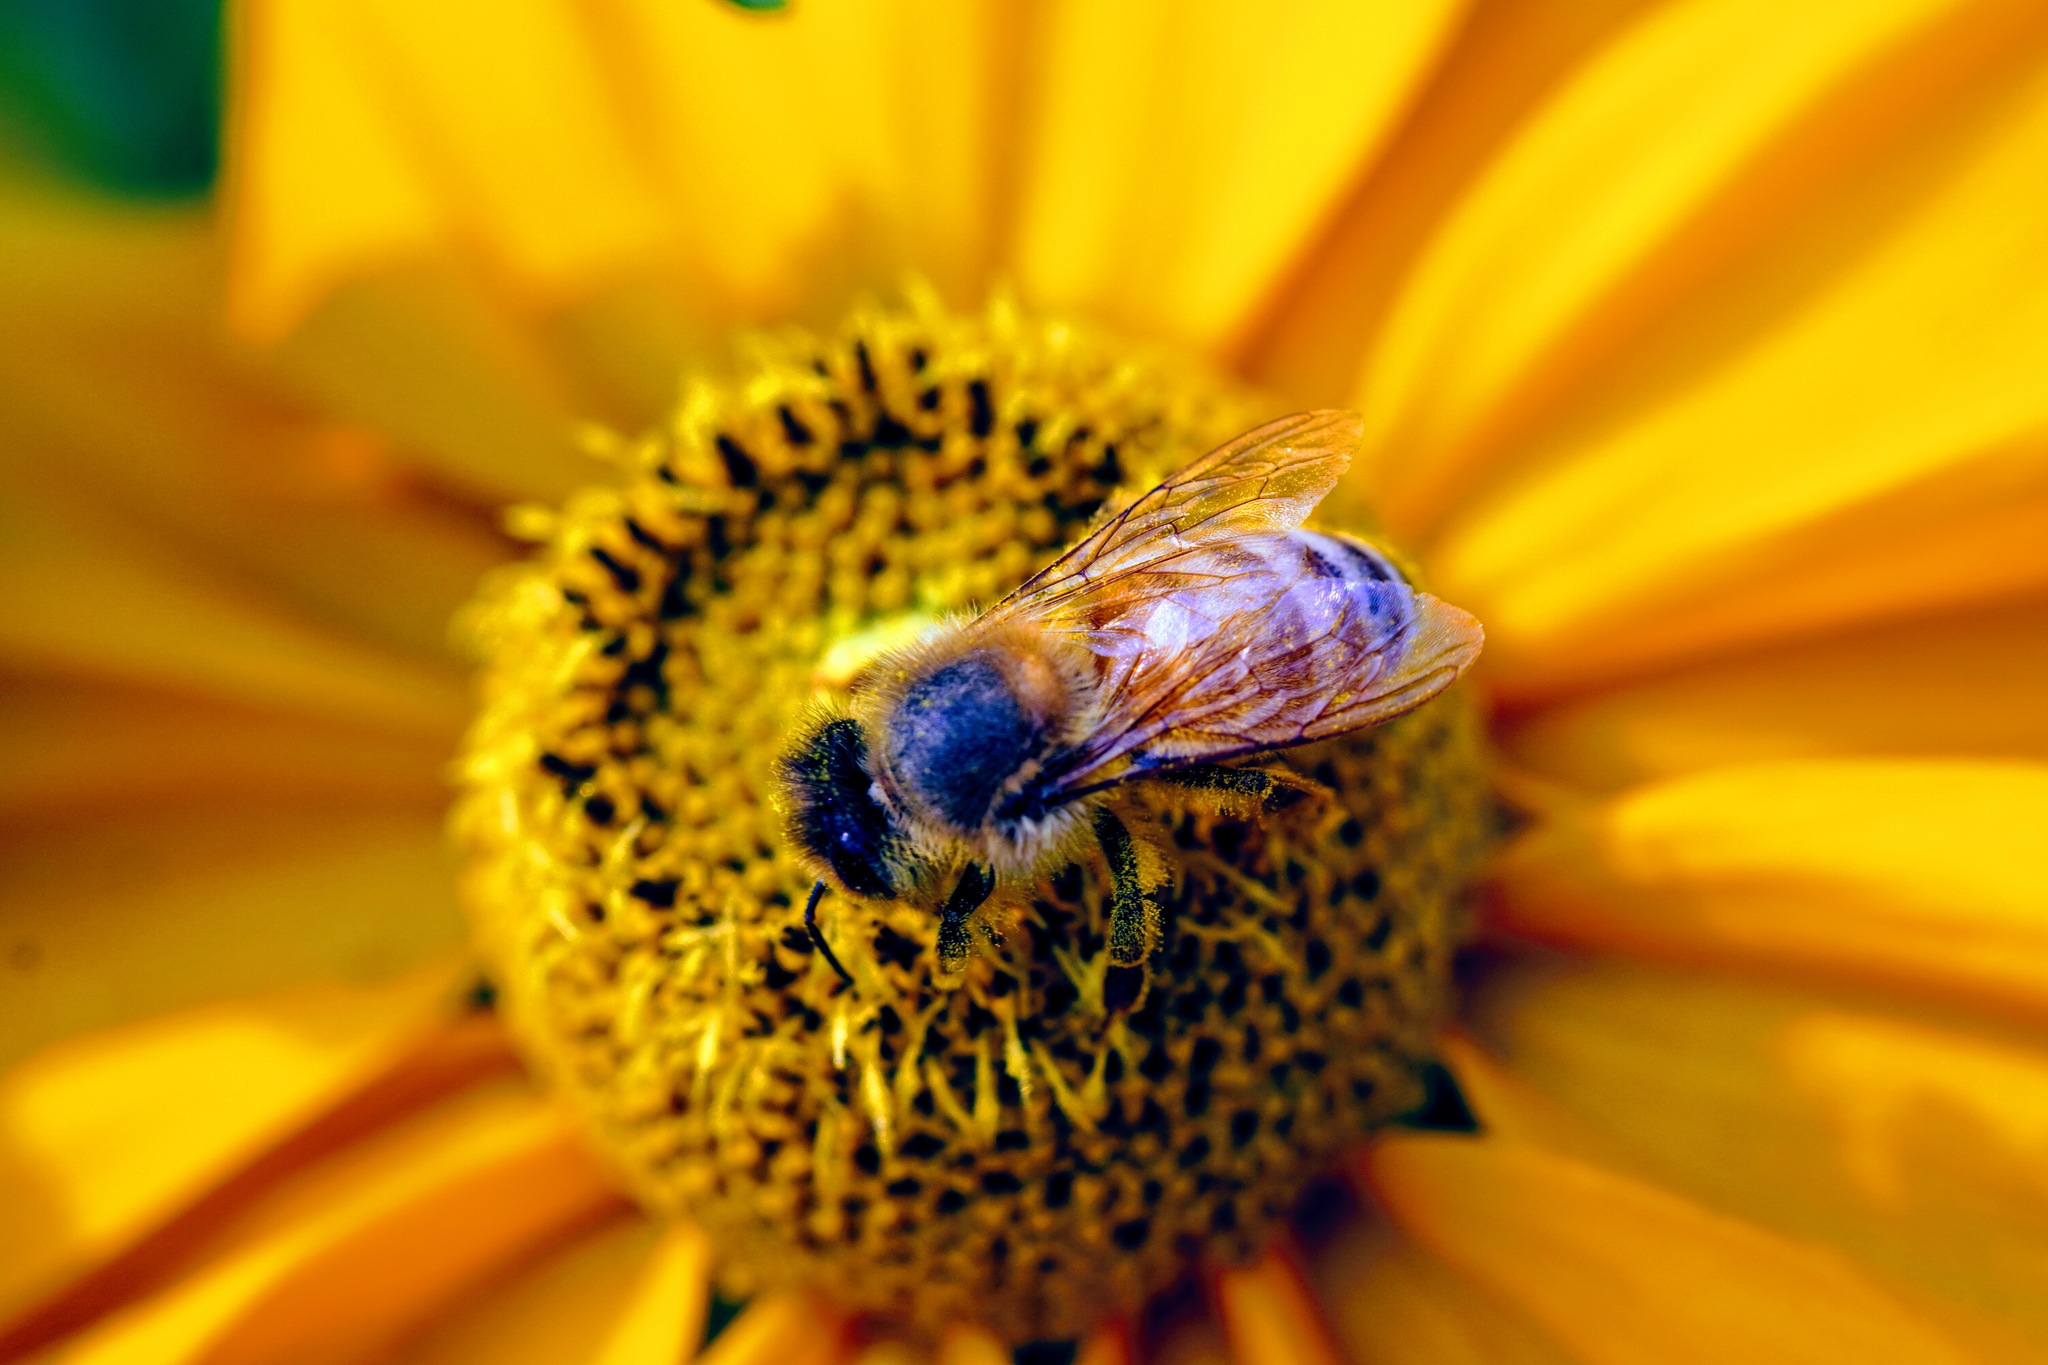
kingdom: Animalia
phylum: Arthropoda
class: Insecta
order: Hymenoptera
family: Apidae
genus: Apis
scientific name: Apis mellifera
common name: Honey bee
